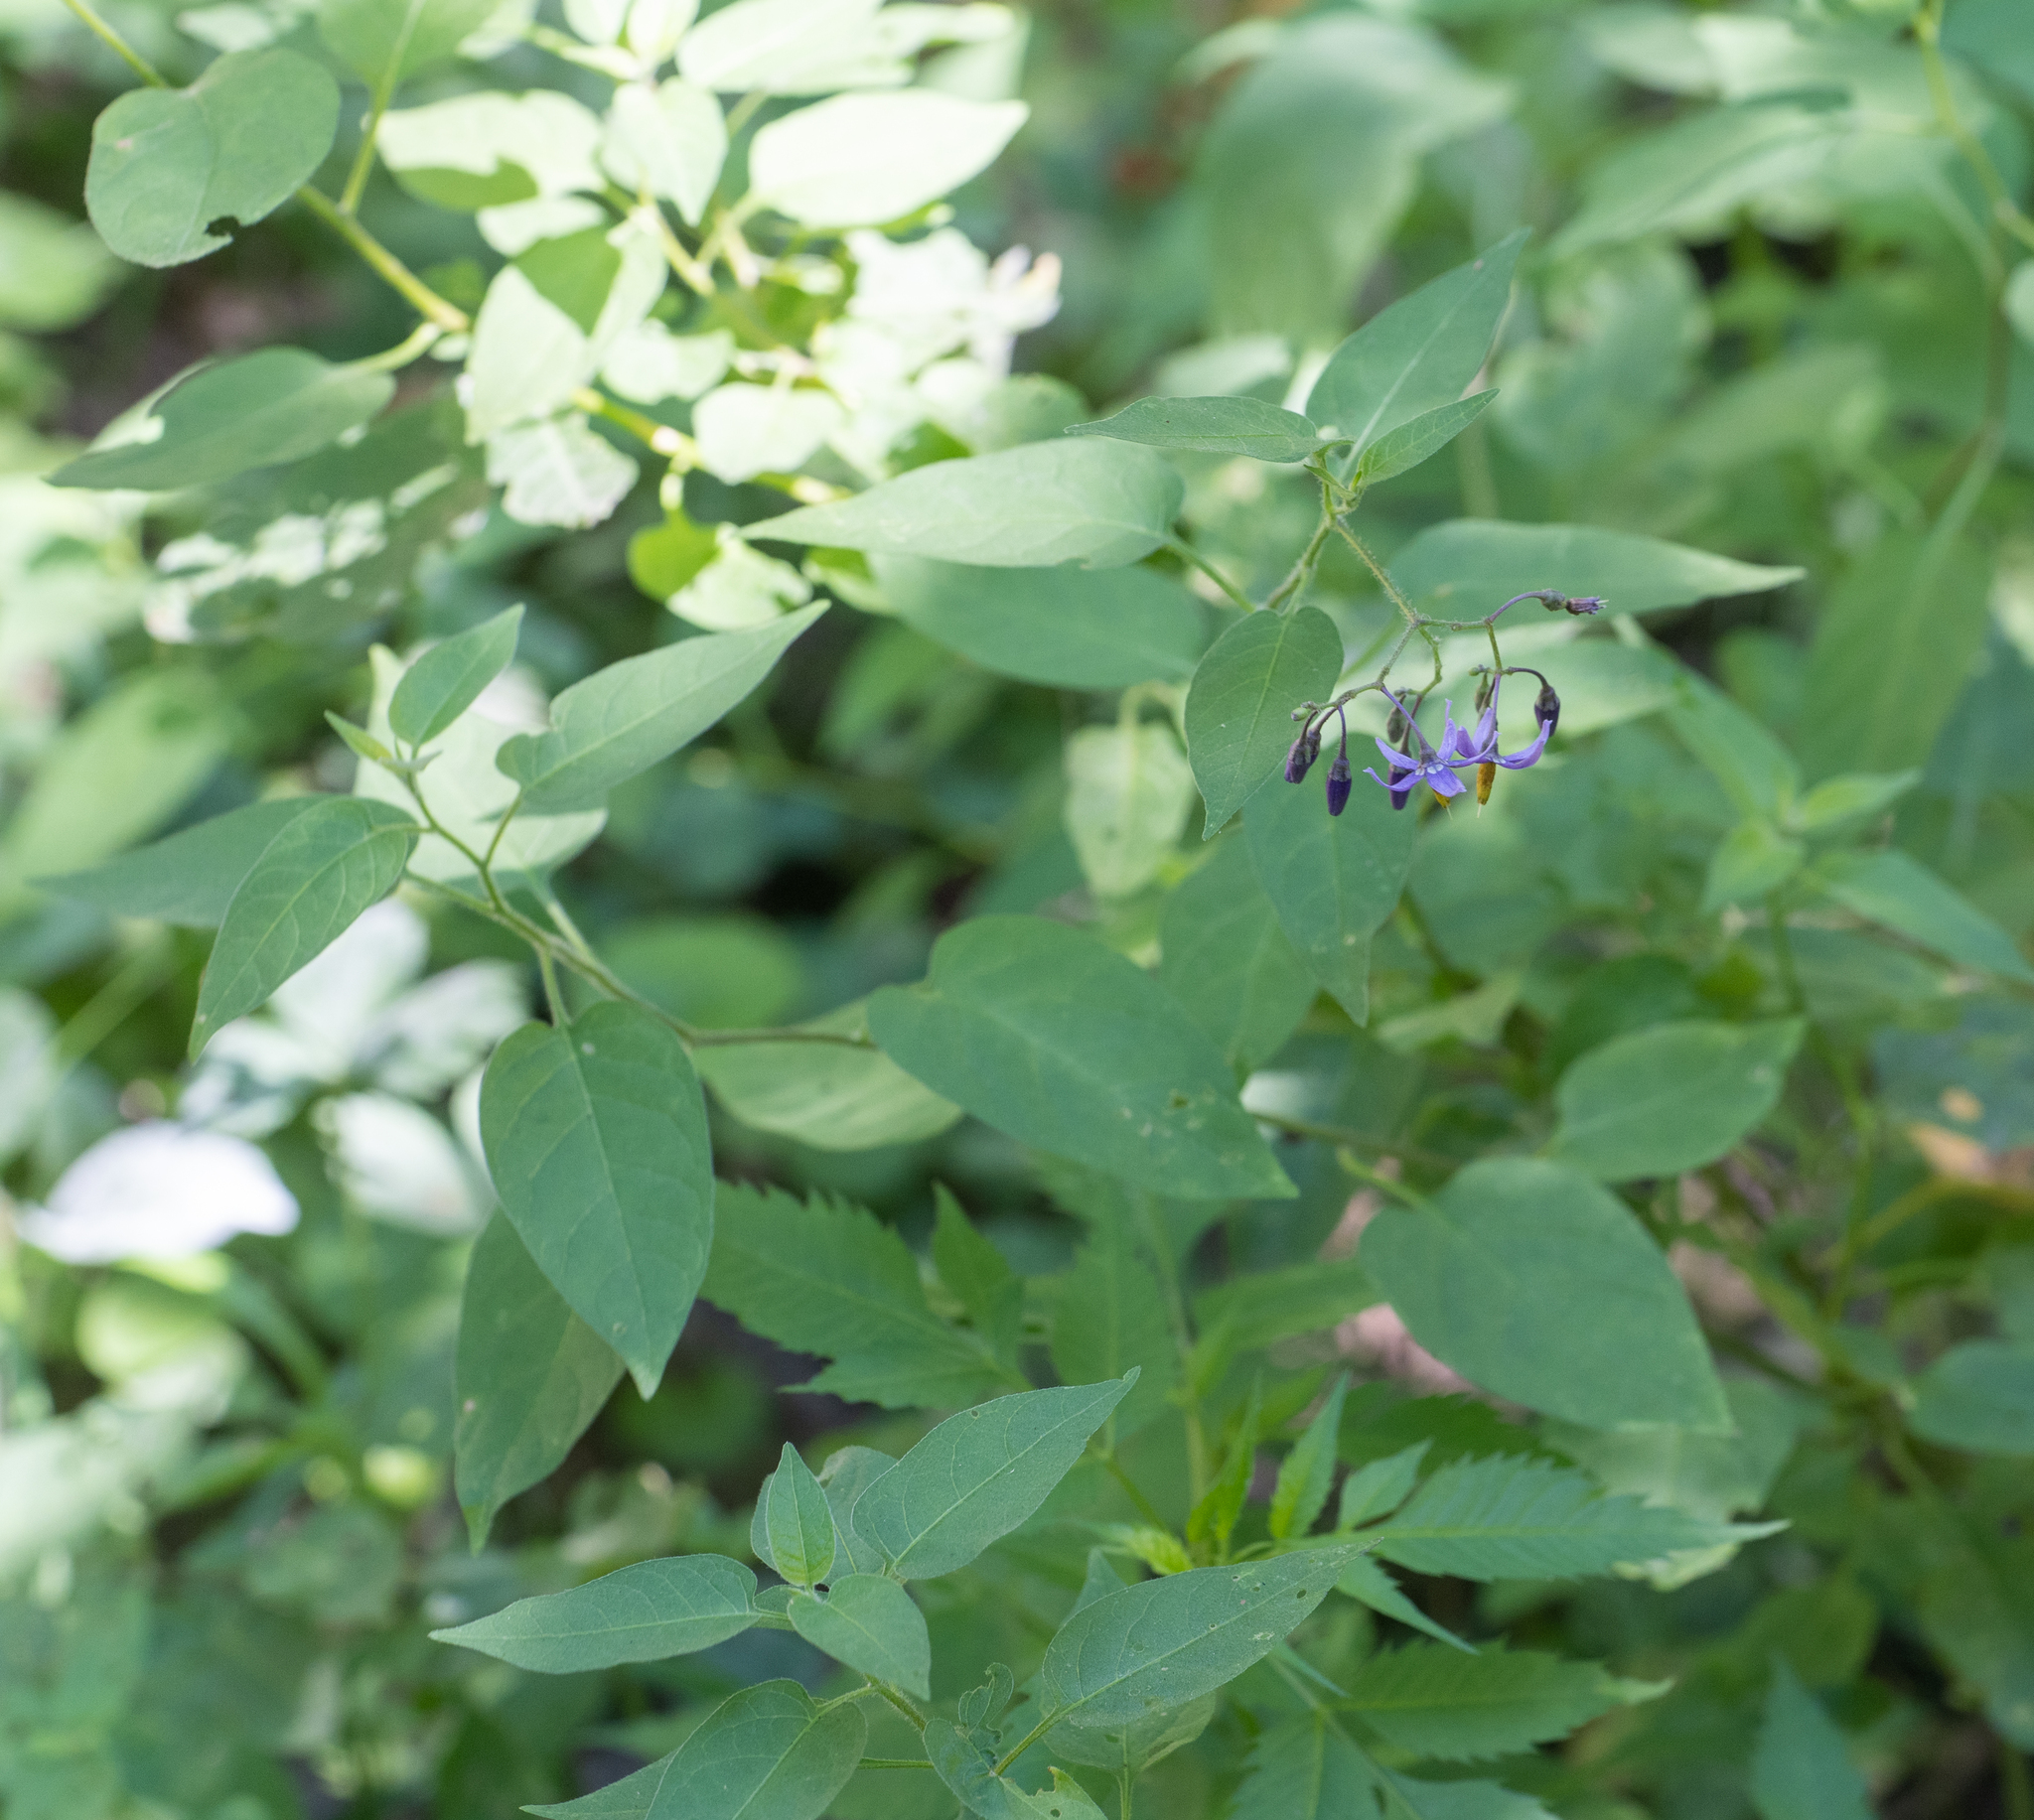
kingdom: Plantae
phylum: Tracheophyta
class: Magnoliopsida
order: Solanales
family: Solanaceae
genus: Solanum
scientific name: Solanum dulcamara
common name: Climbing nightshade
